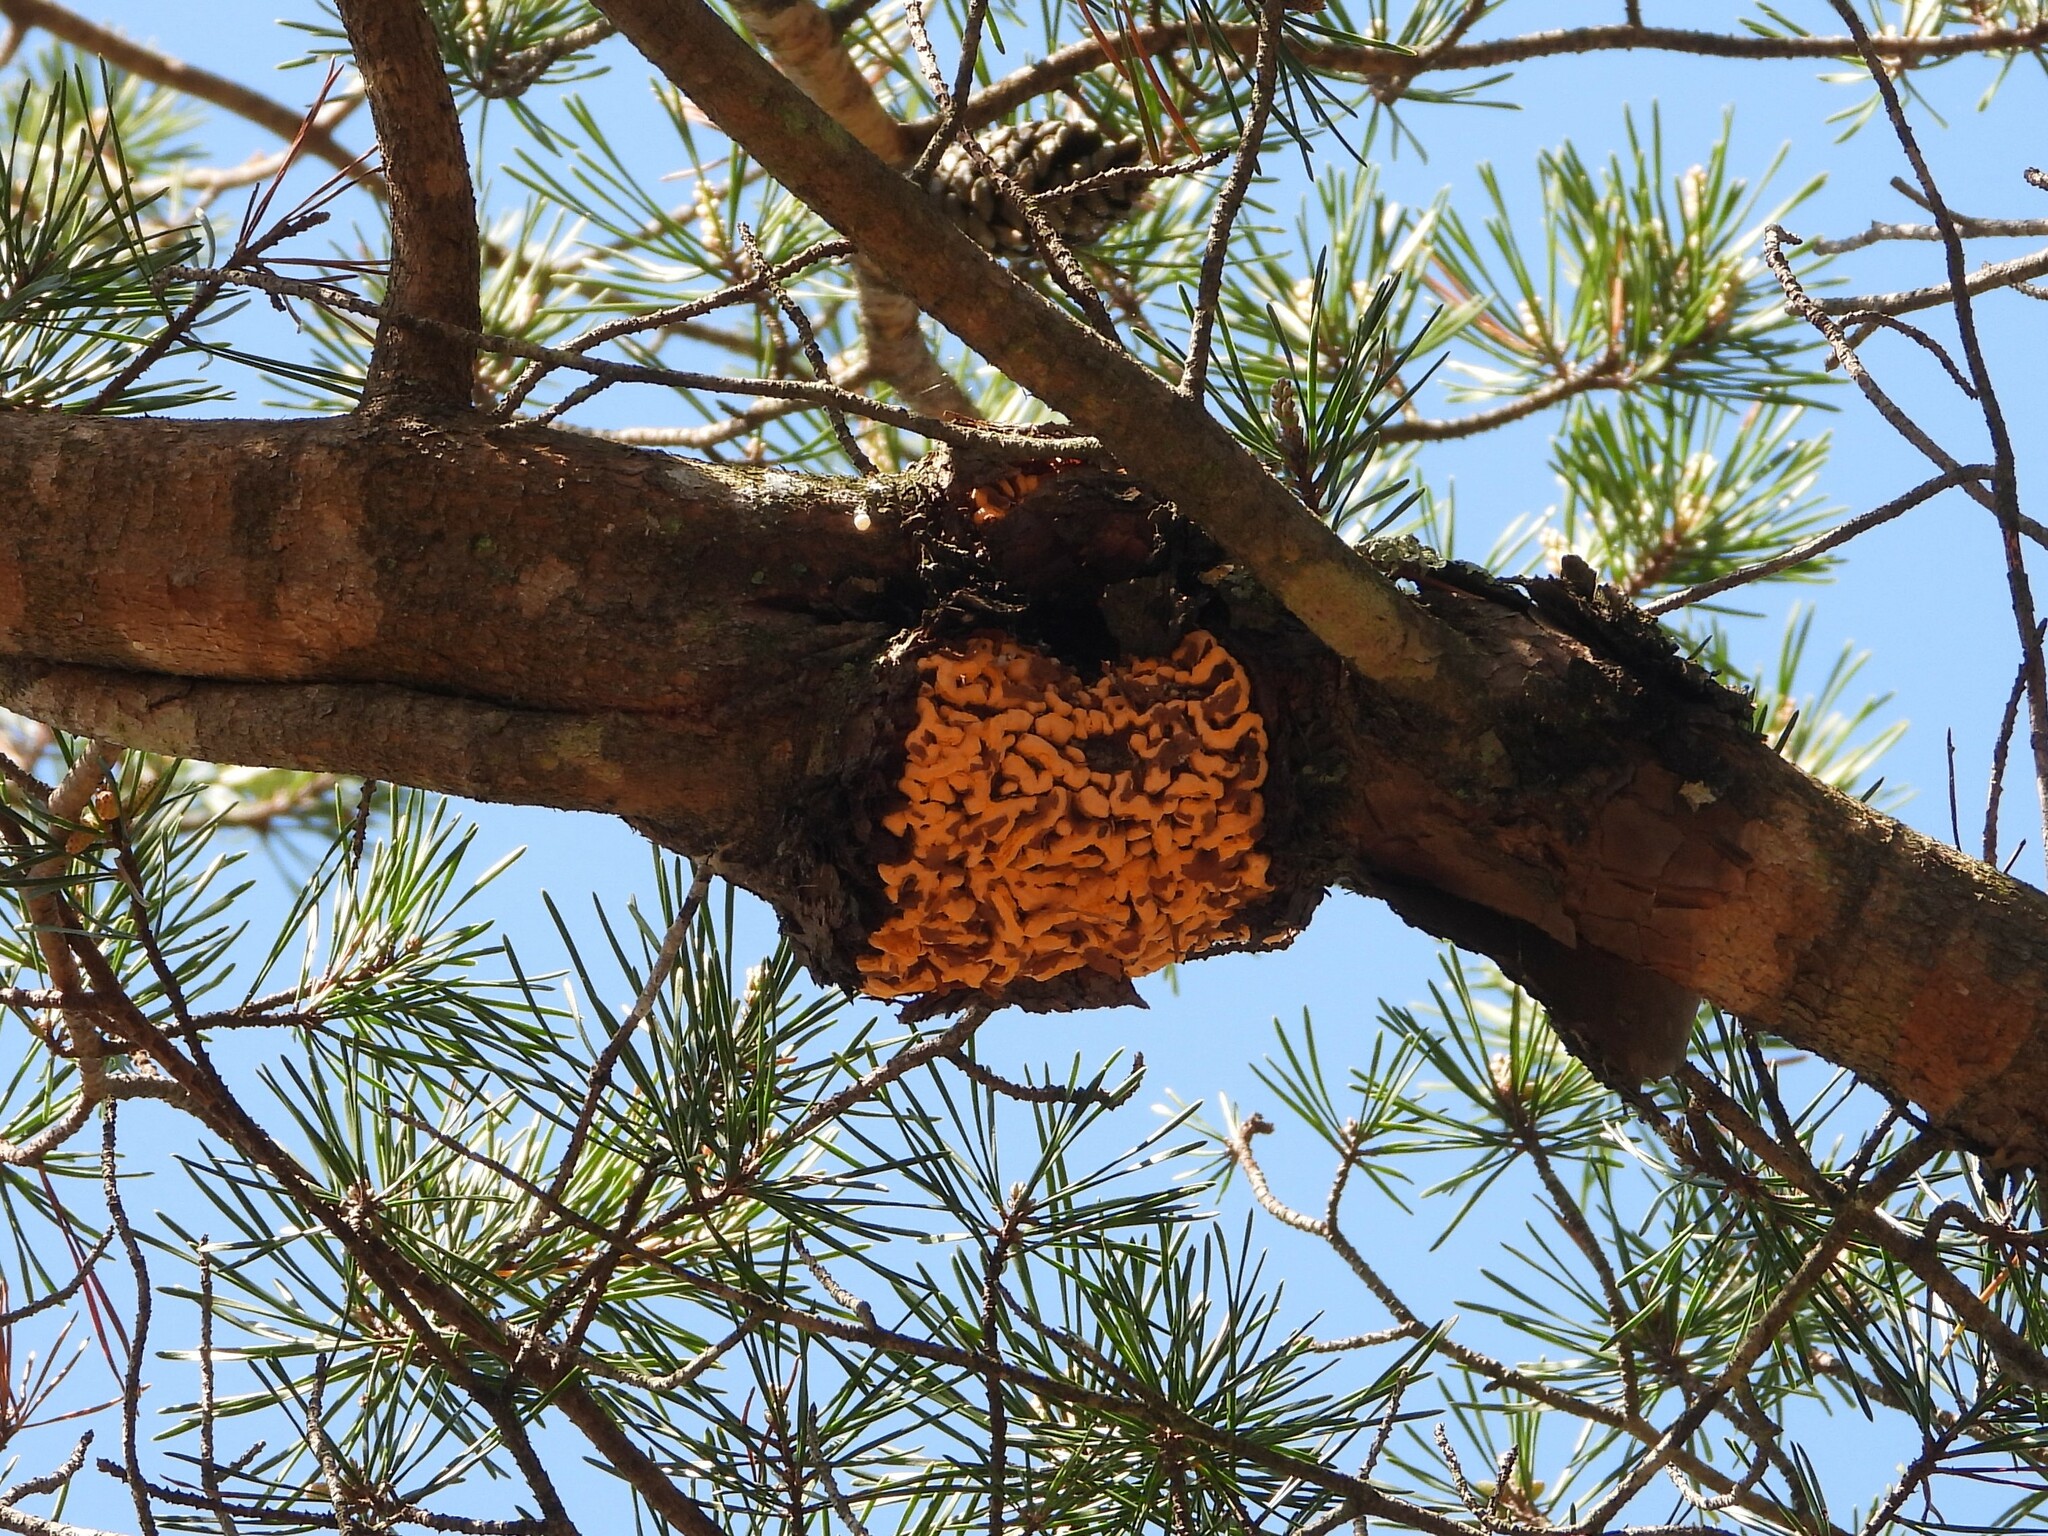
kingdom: Fungi
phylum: Basidiomycota
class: Pucciniomycetes
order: Pucciniales
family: Cronartiaceae
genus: Cronartium
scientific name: Cronartium quercuum
